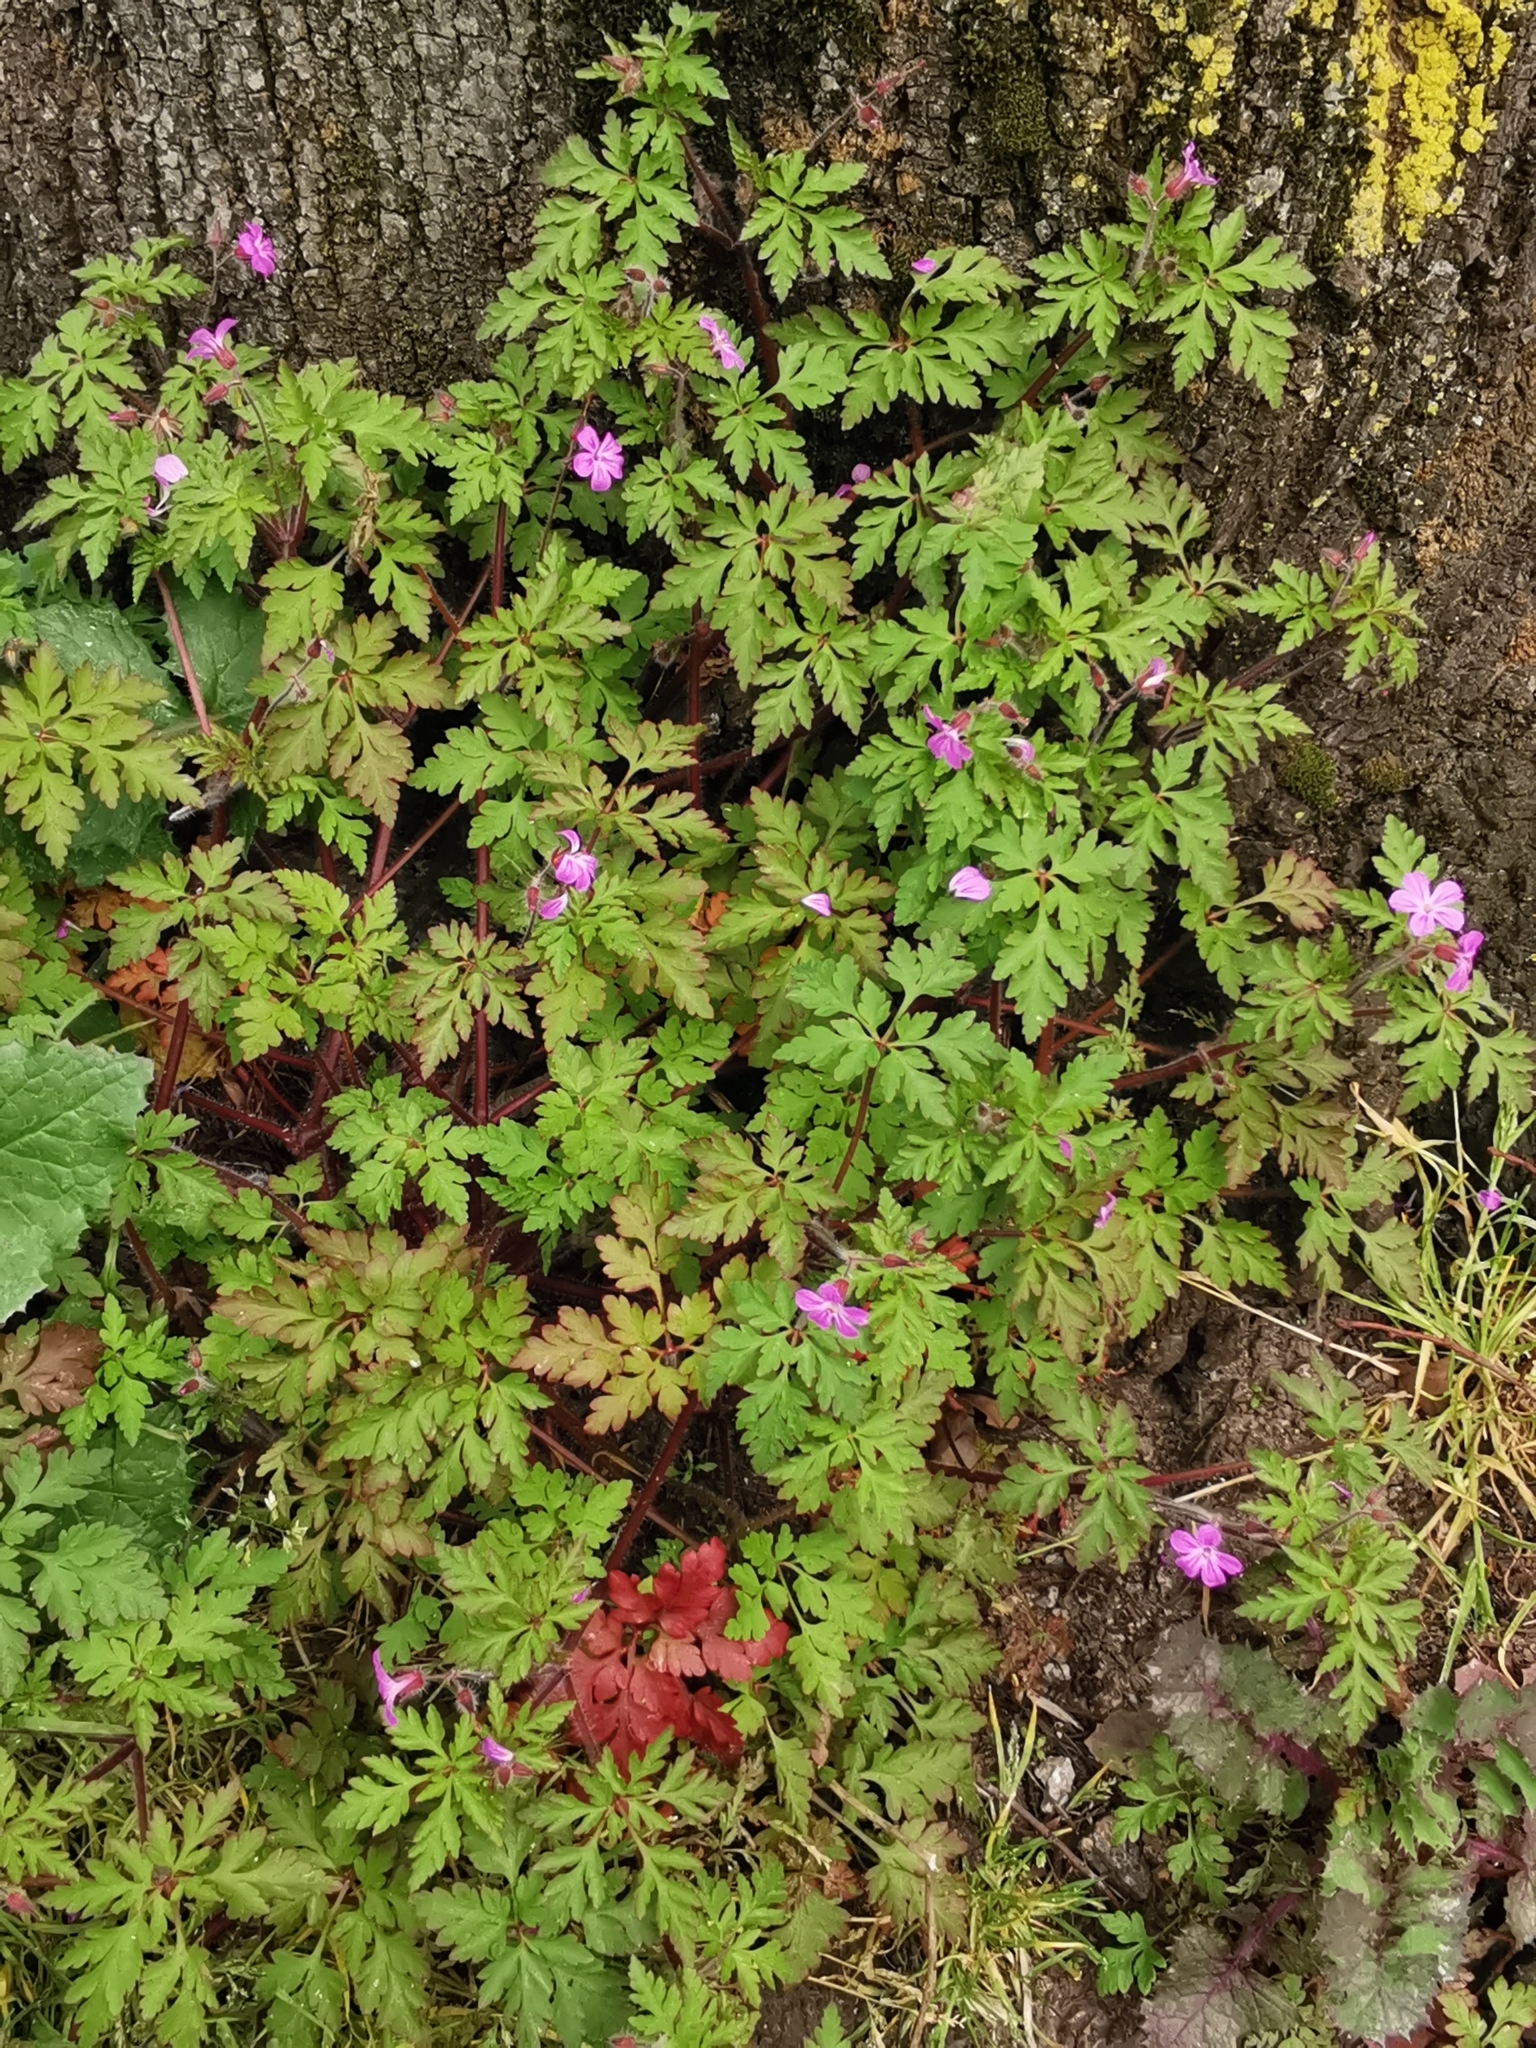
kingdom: Plantae
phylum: Tracheophyta
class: Magnoliopsida
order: Geraniales
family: Geraniaceae
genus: Geranium
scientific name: Geranium robertianum
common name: Herb-robert
